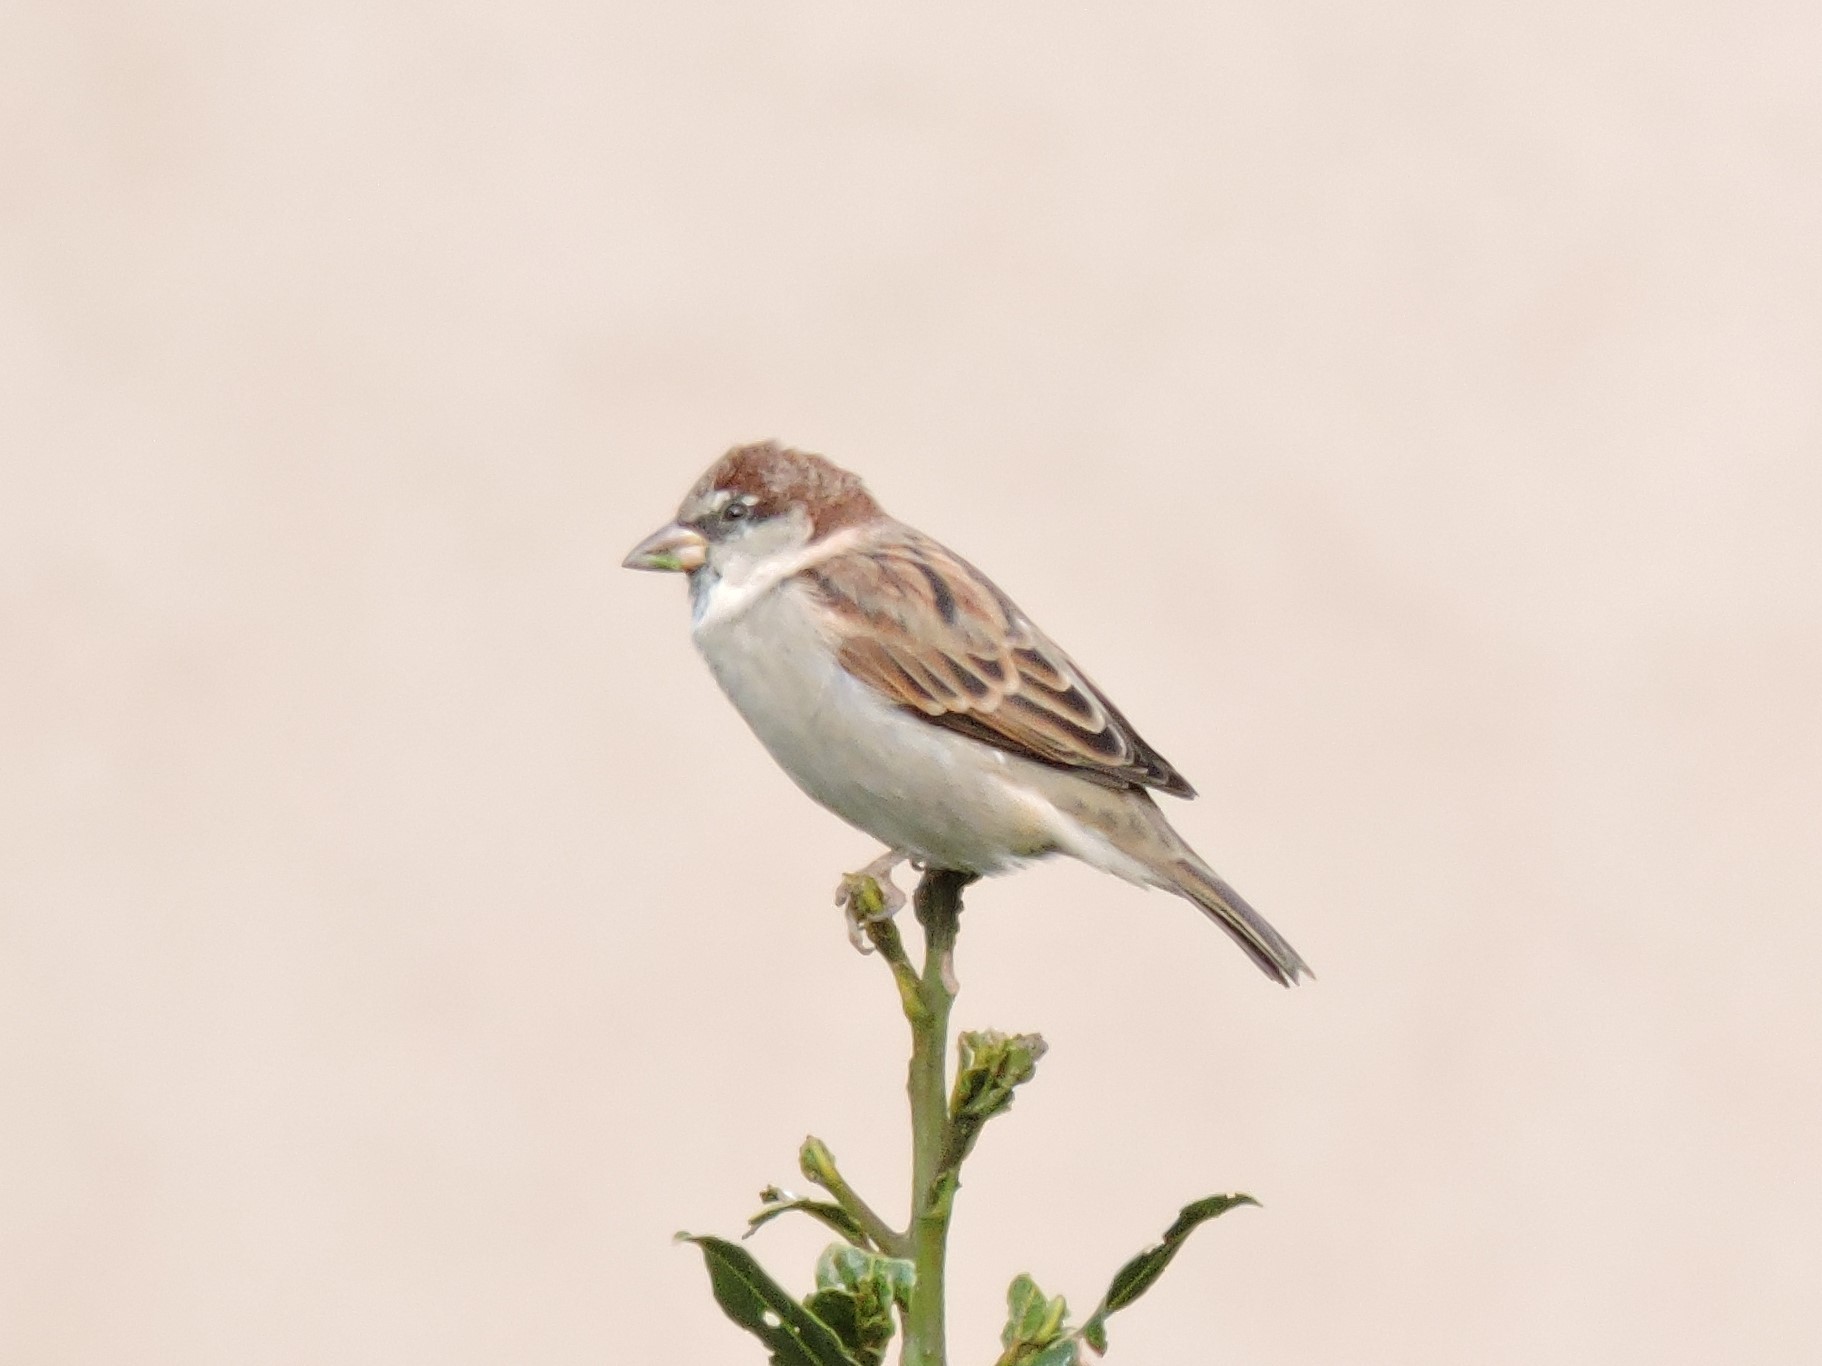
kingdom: Animalia
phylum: Chordata
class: Aves
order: Passeriformes
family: Passeridae
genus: Passer
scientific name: Passer italiae
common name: Italian sparrow
